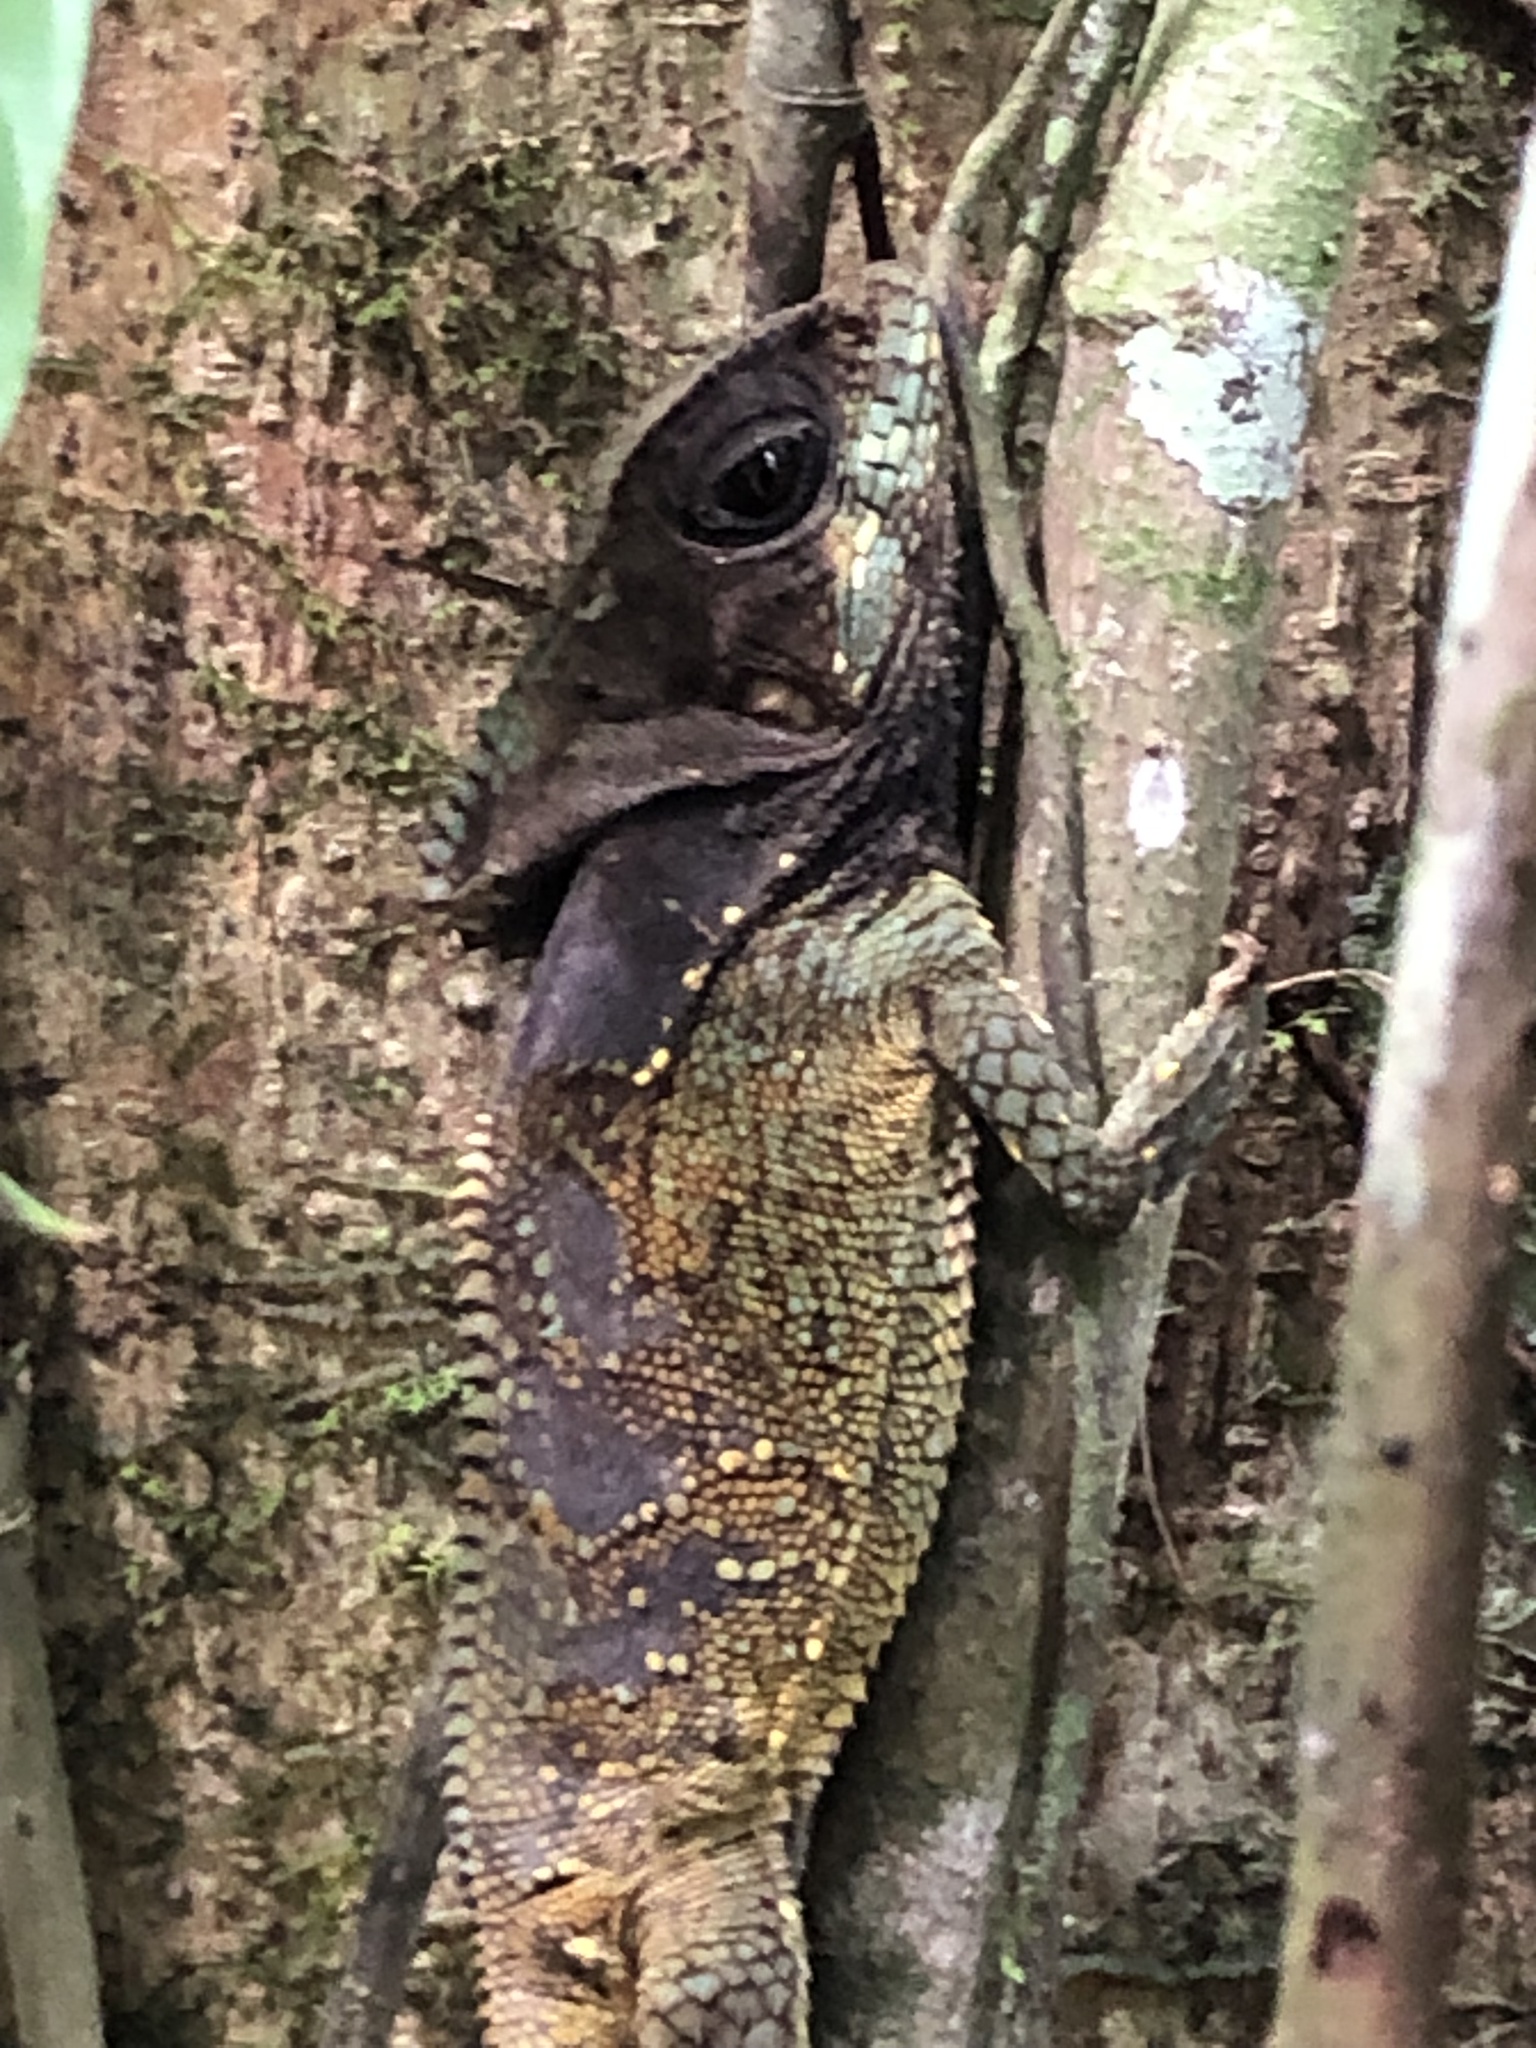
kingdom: Animalia
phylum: Chordata
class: Squamata
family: Corytophanidae
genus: Corytophanes
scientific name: Corytophanes cristatus
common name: Smooth helmeted iguana
